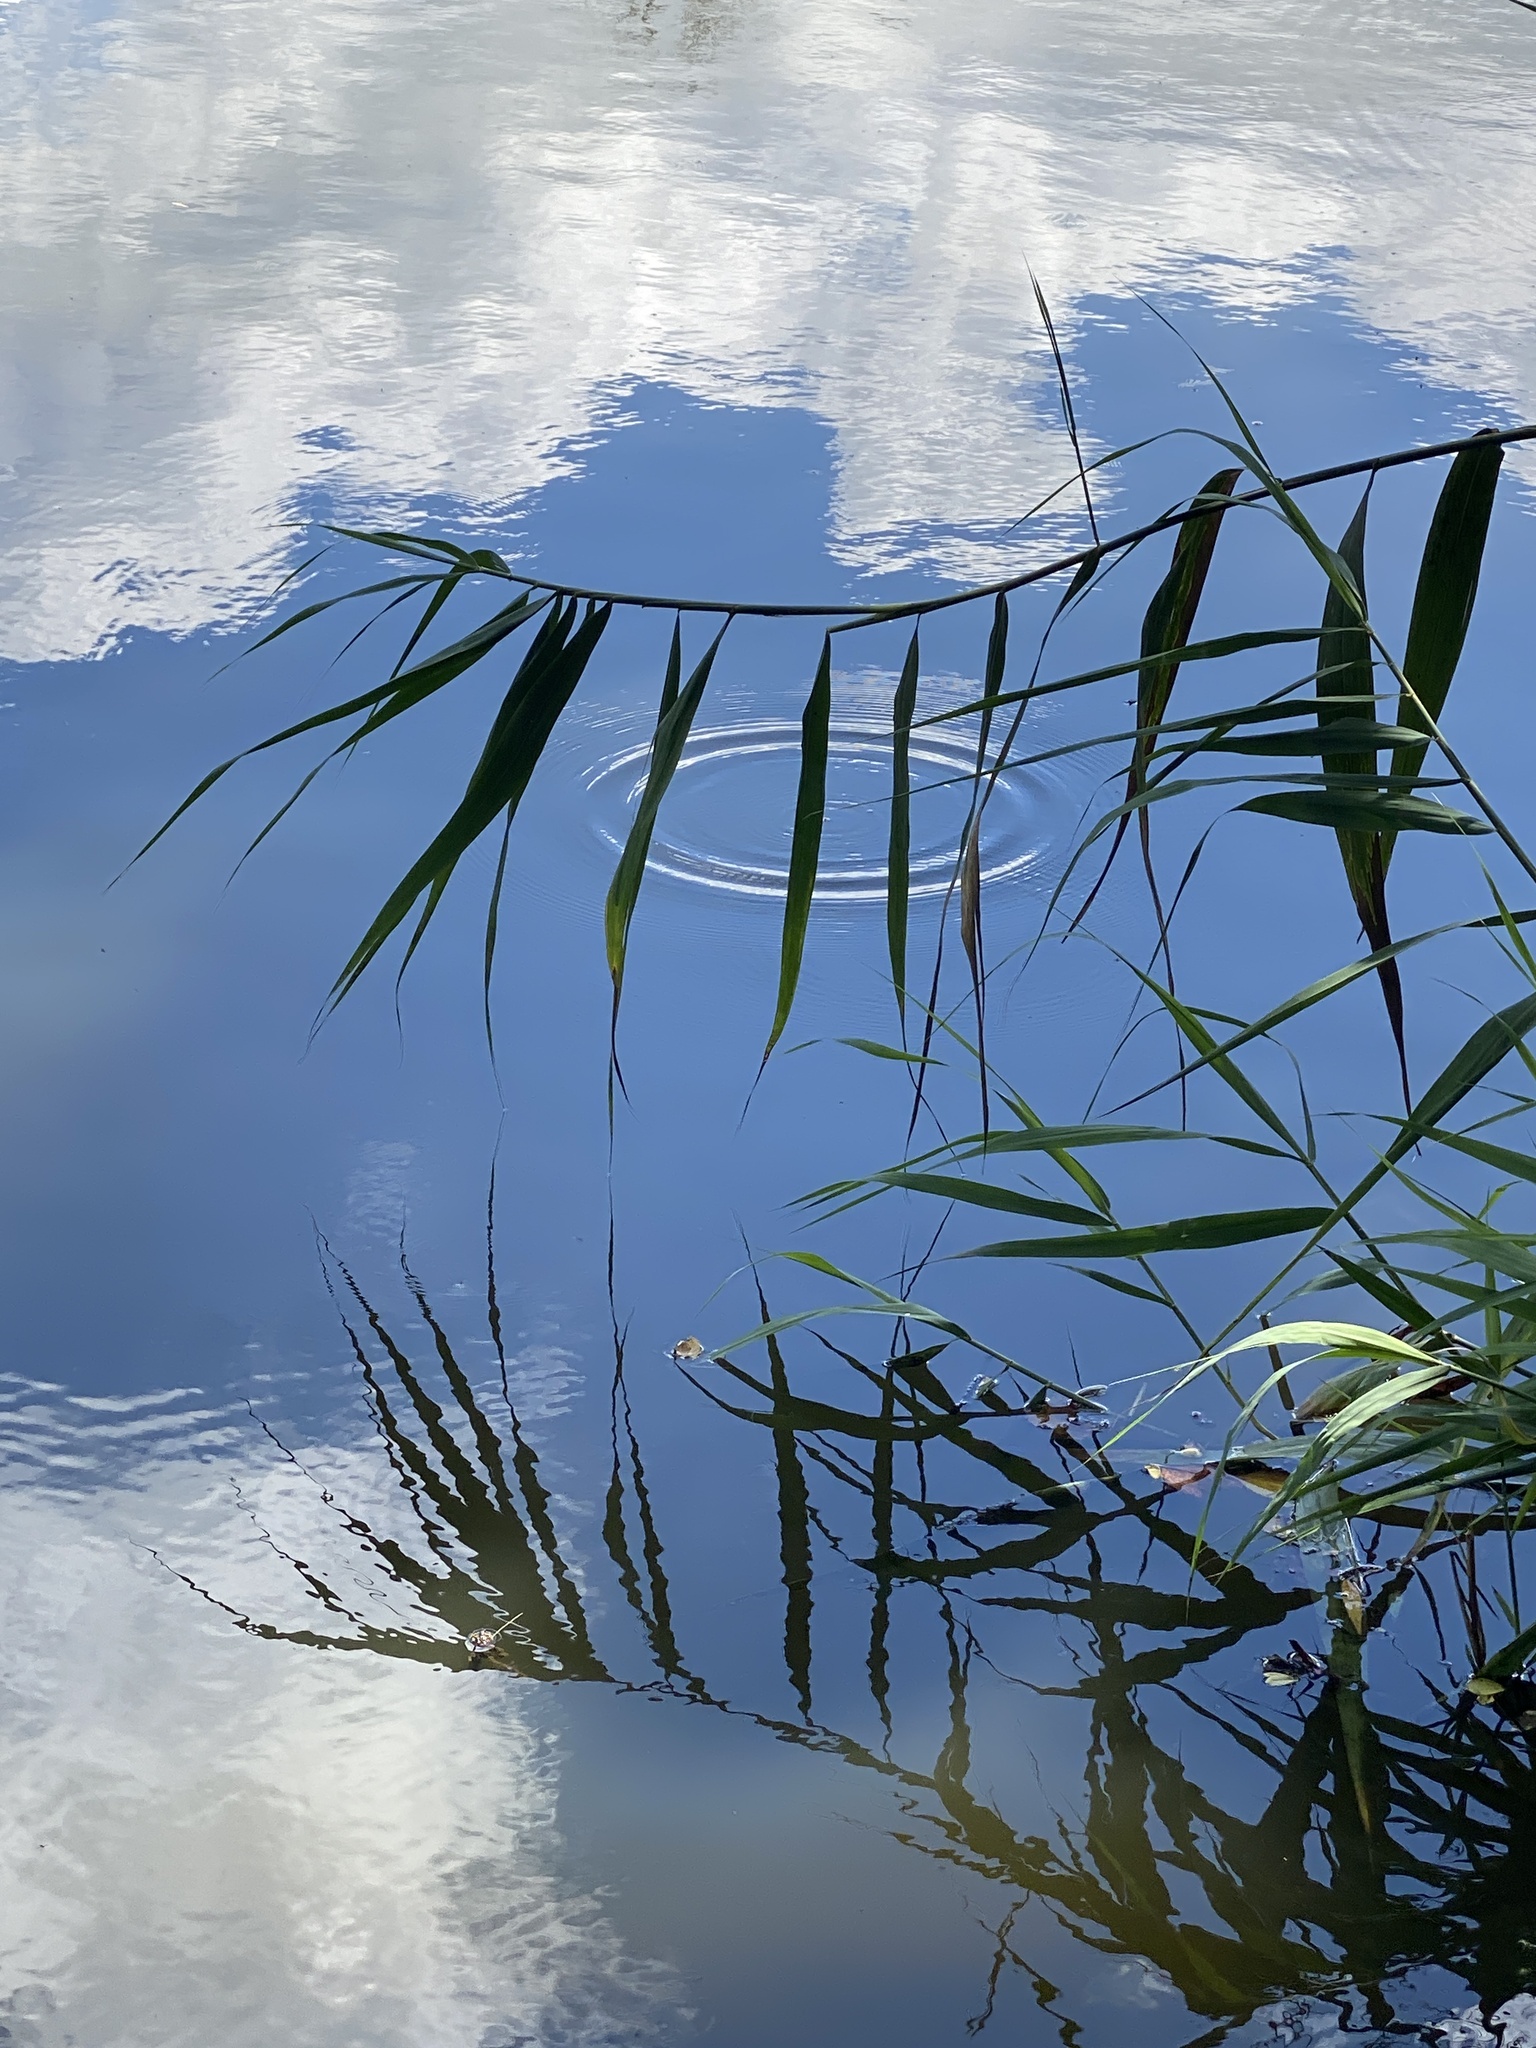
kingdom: Plantae
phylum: Tracheophyta
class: Liliopsida
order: Poales
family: Poaceae
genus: Phragmites
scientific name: Phragmites australis
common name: Common reed
